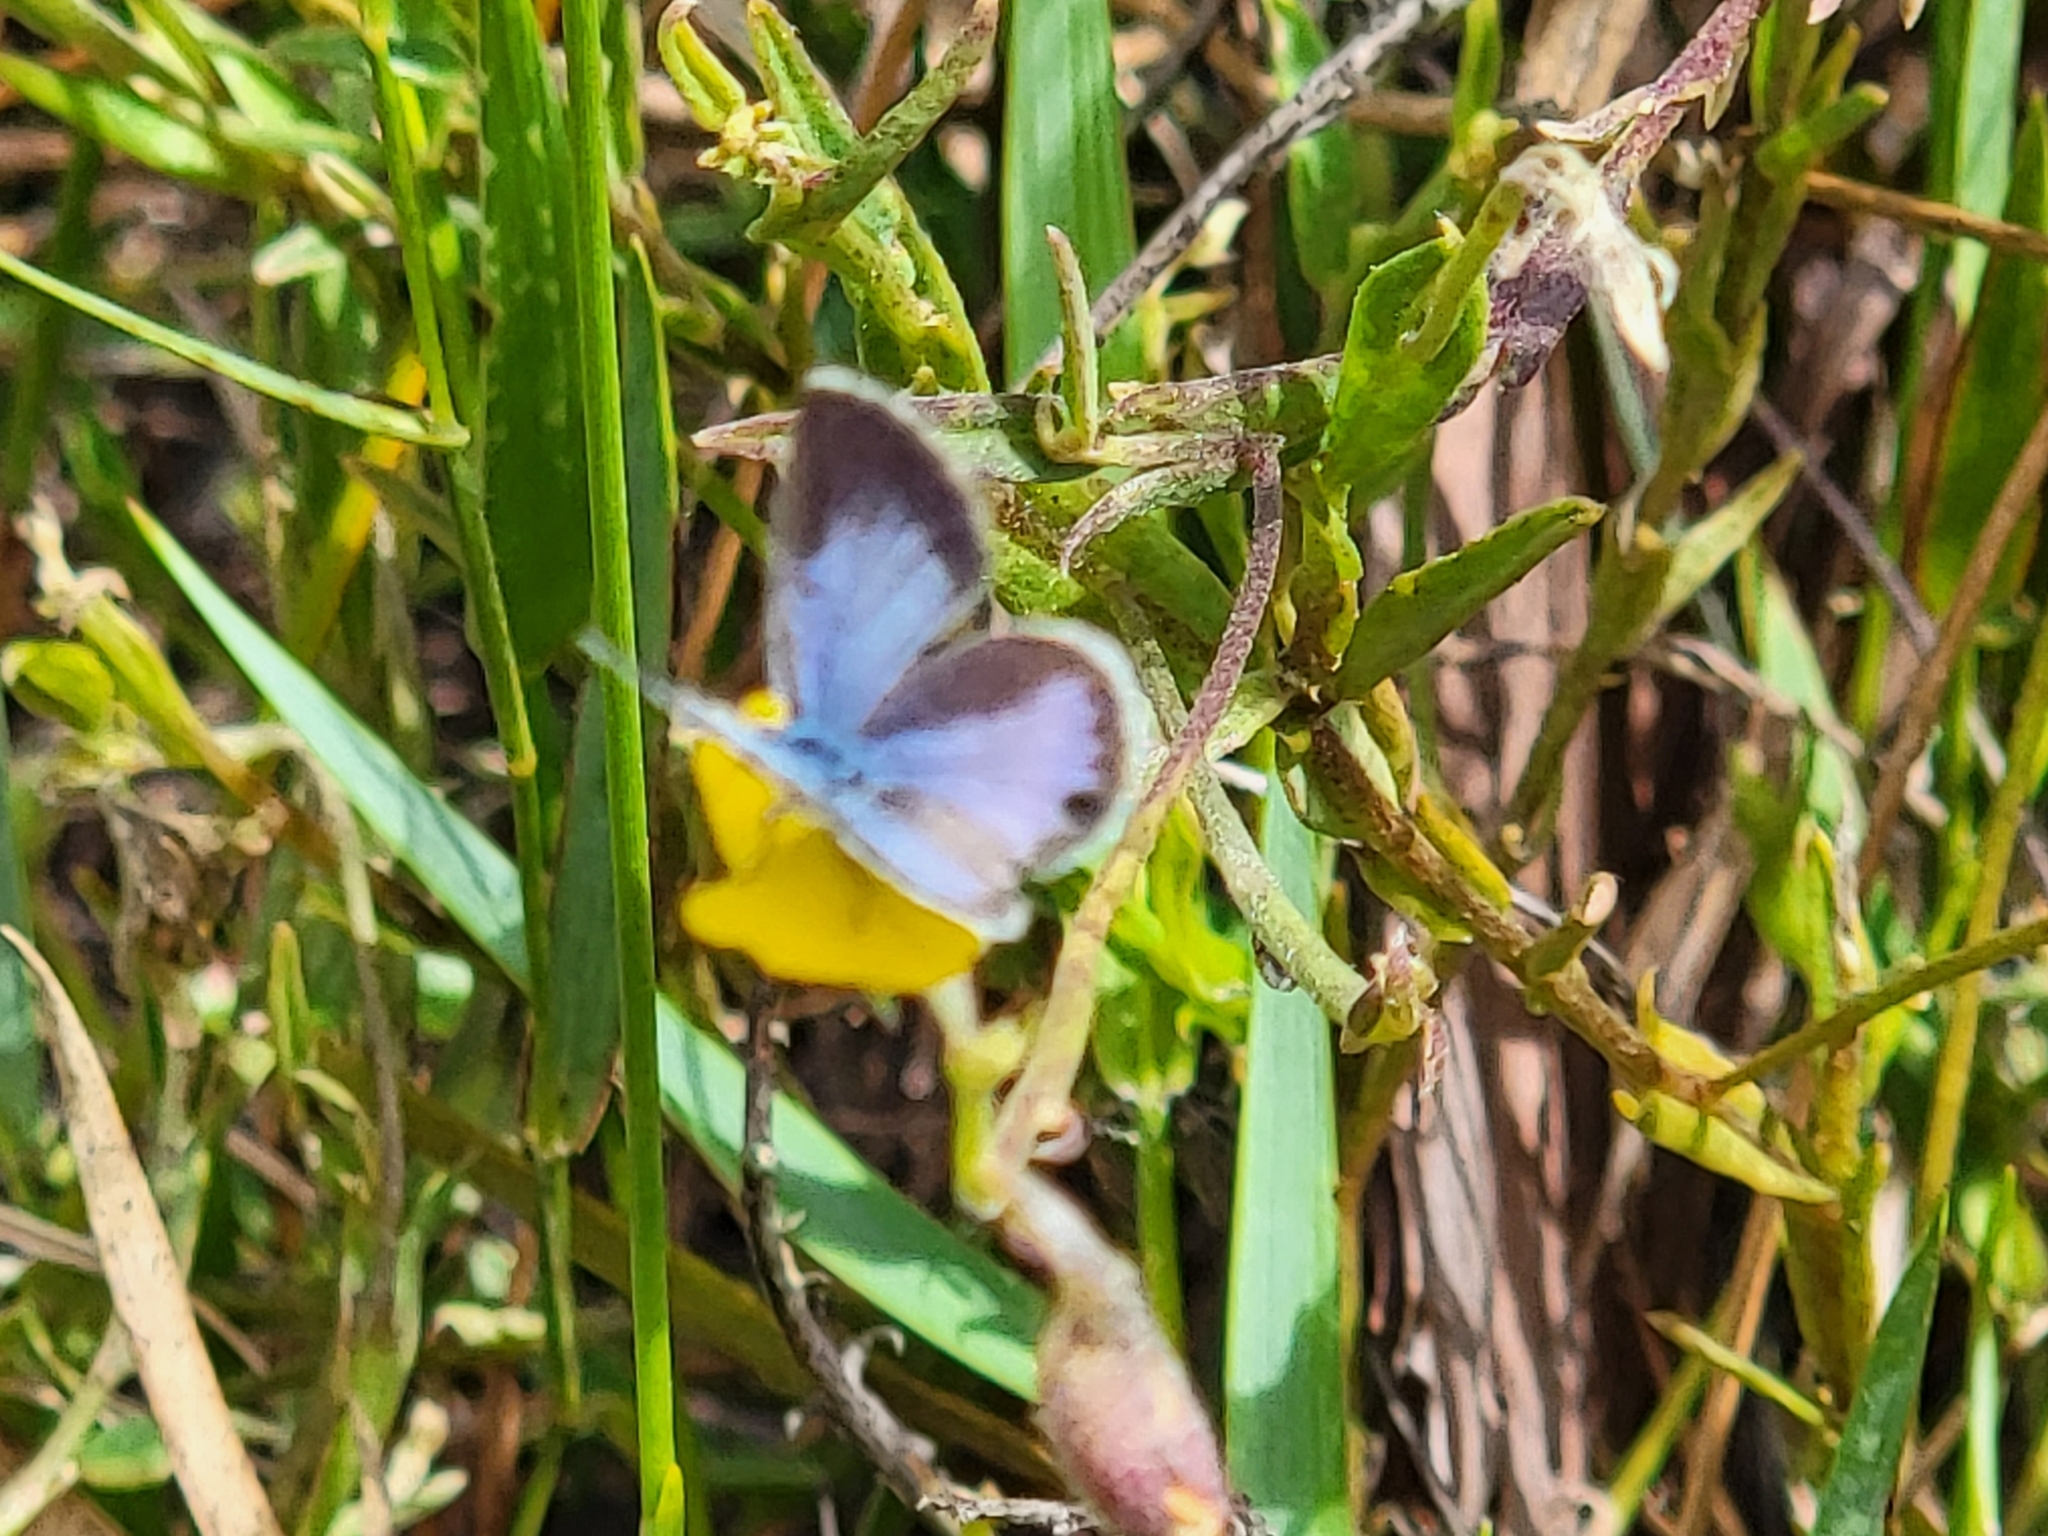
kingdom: Animalia
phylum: Arthropoda
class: Insecta
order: Lepidoptera
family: Lycaenidae
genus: Hemiargus
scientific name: Hemiargus ceraunus
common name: Ceraunus blue
